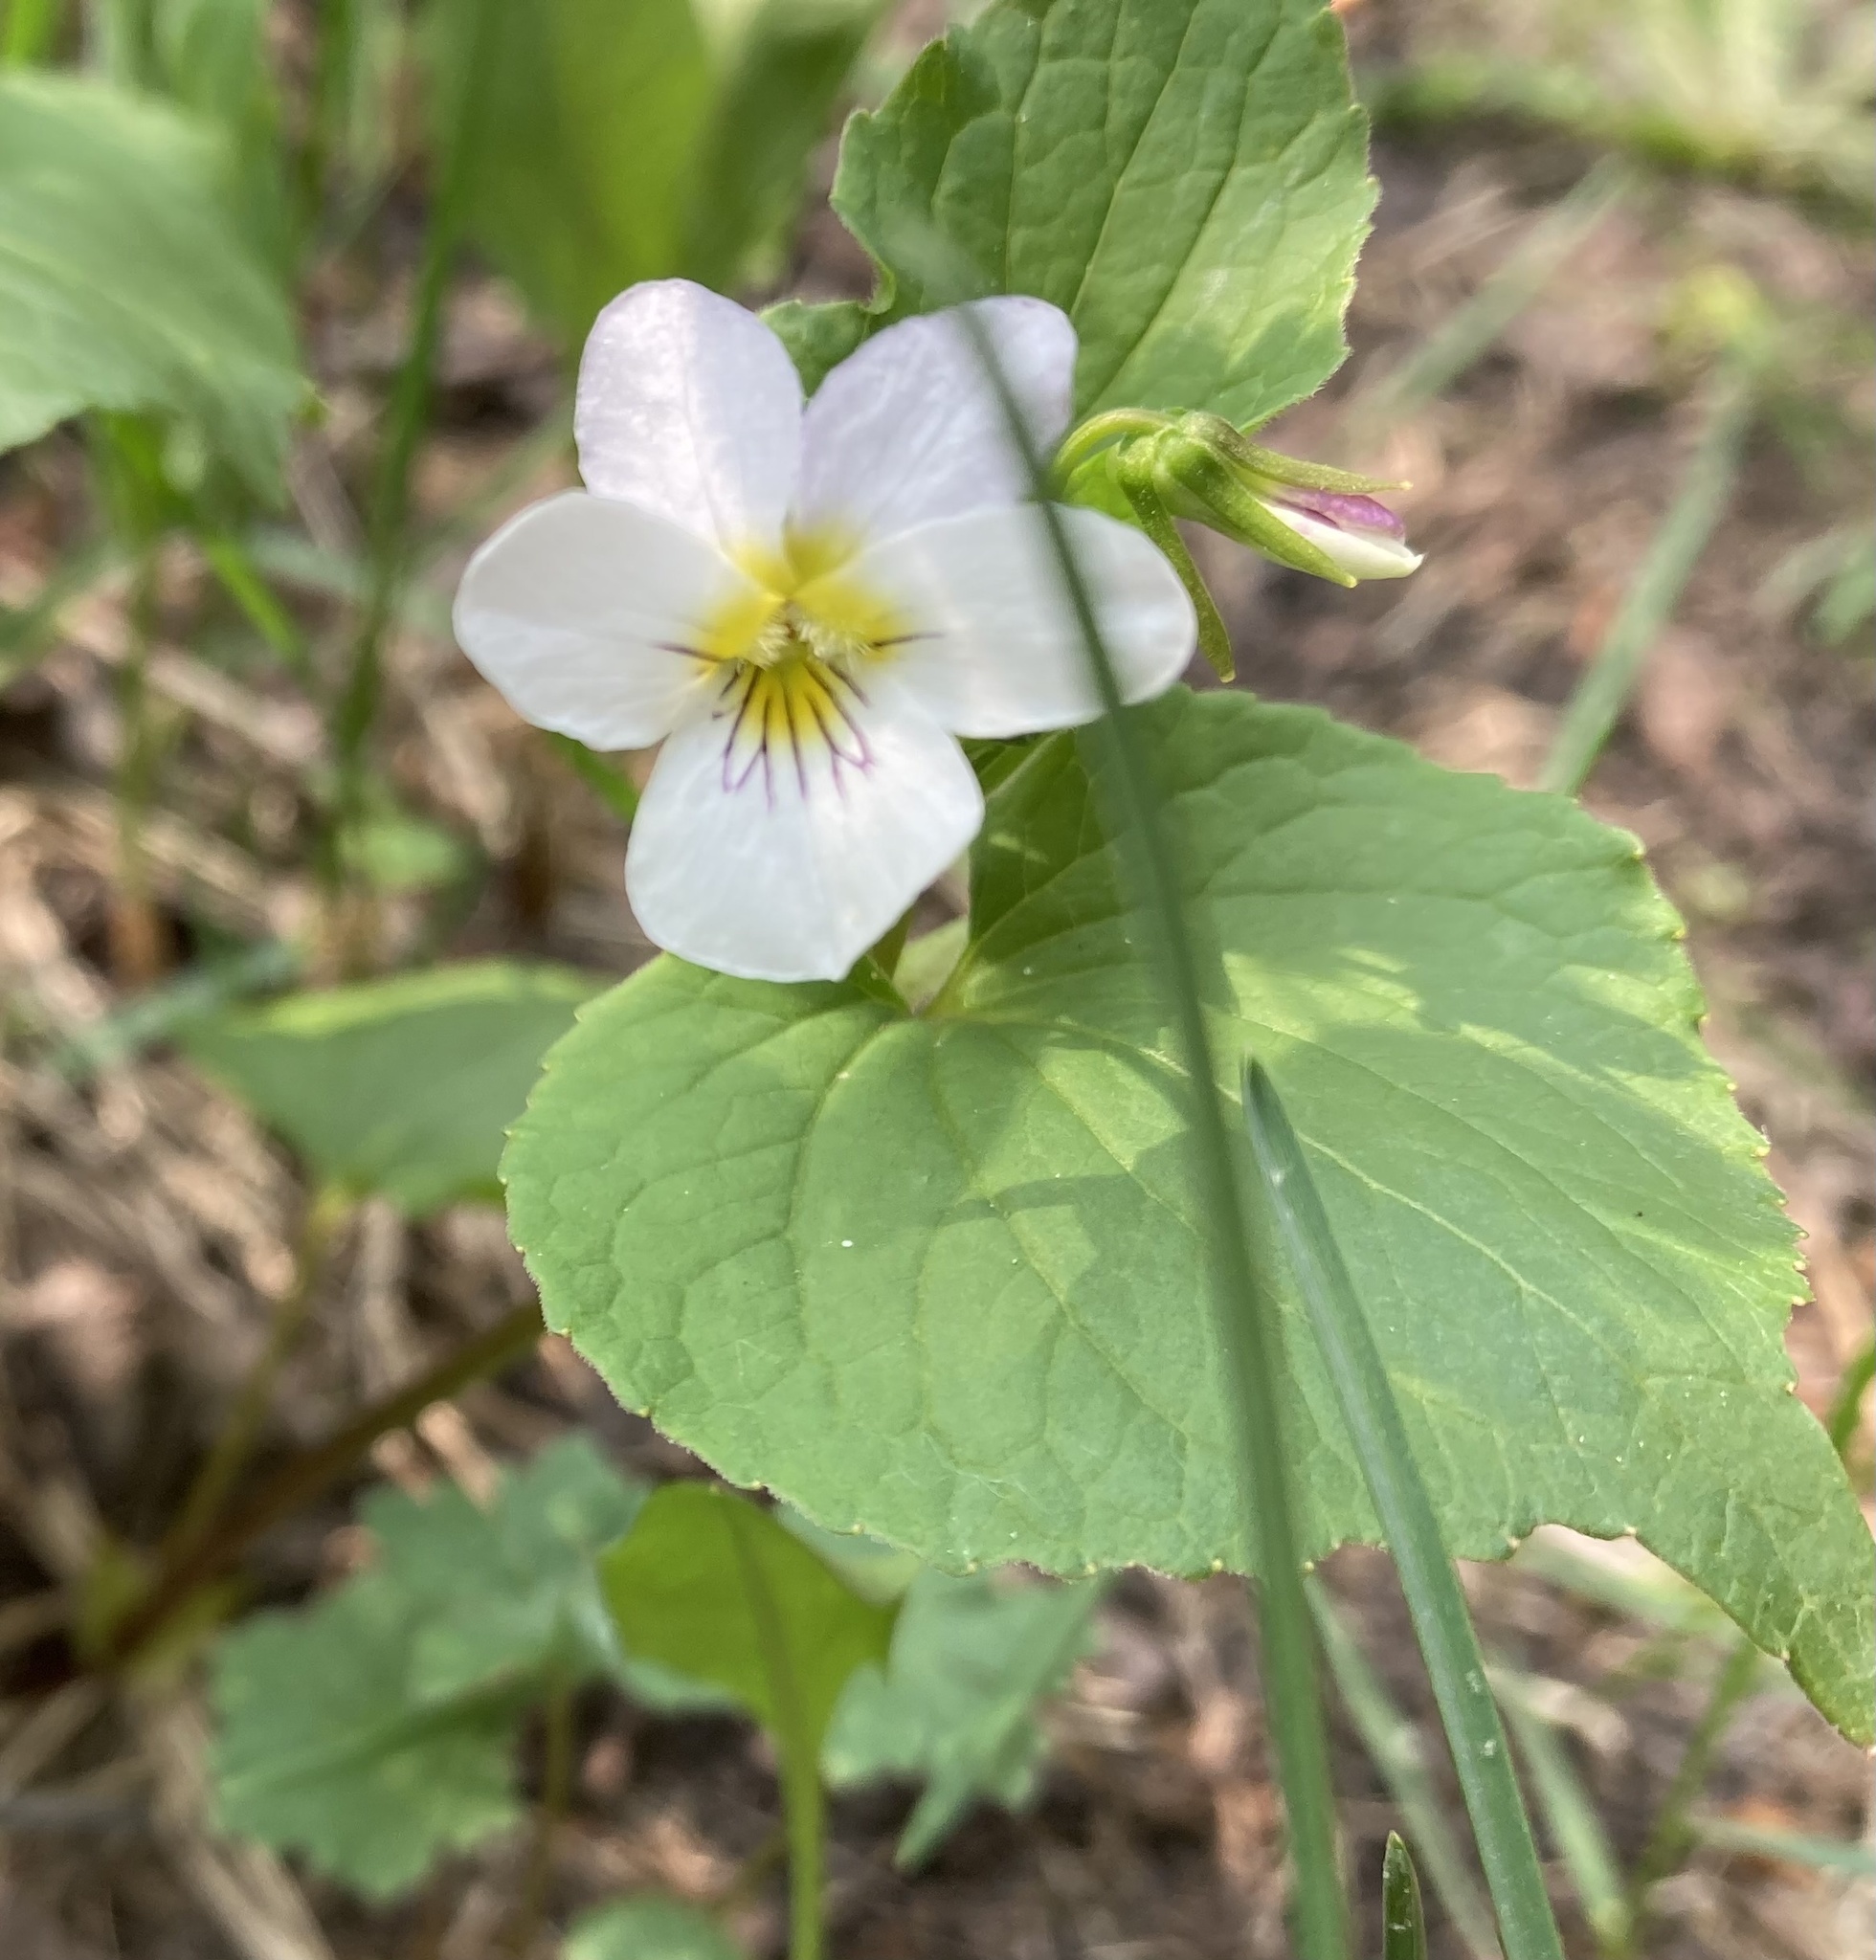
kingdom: Plantae
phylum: Tracheophyta
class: Magnoliopsida
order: Malpighiales
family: Violaceae
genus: Viola
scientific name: Viola canadensis
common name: Canada violet
